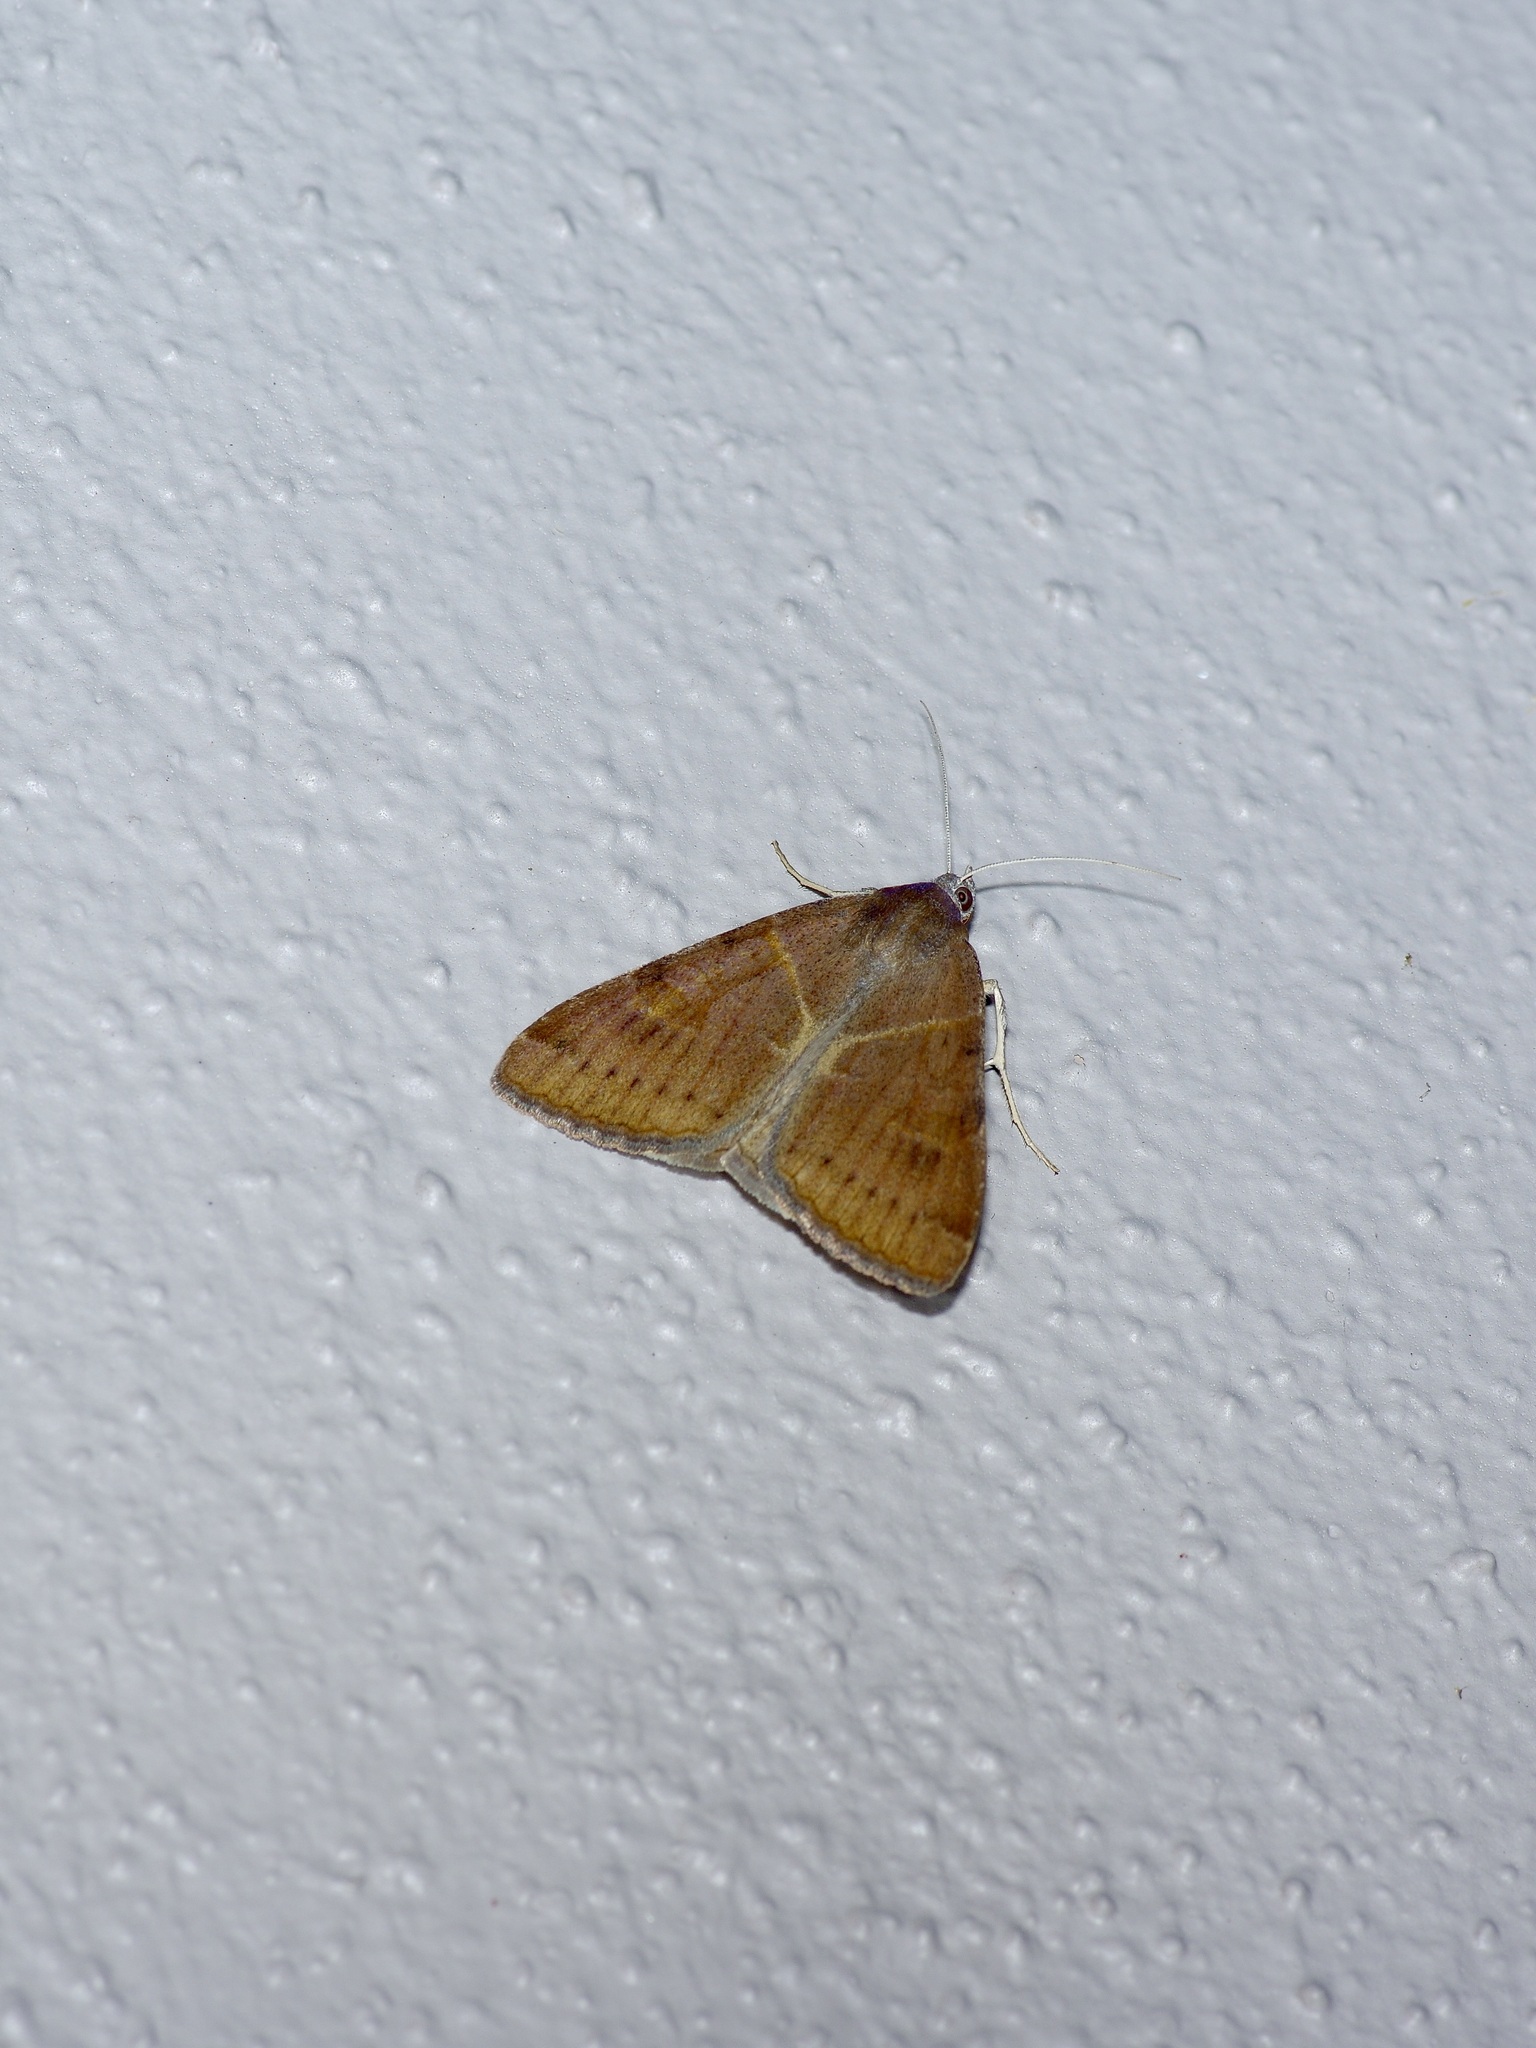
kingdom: Animalia
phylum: Arthropoda
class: Insecta
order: Lepidoptera
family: Erebidae
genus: Caenurgina
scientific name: Caenurgina erechtea
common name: Forage looper moth
